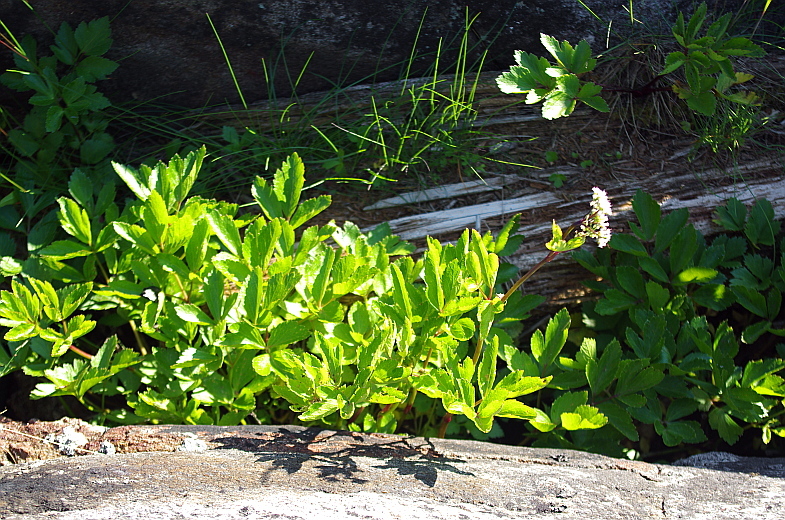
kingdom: Plantae
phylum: Tracheophyta
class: Magnoliopsida
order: Apiales
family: Apiaceae
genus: Ligusticum
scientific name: Ligusticum scothicum
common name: Beach lovage
